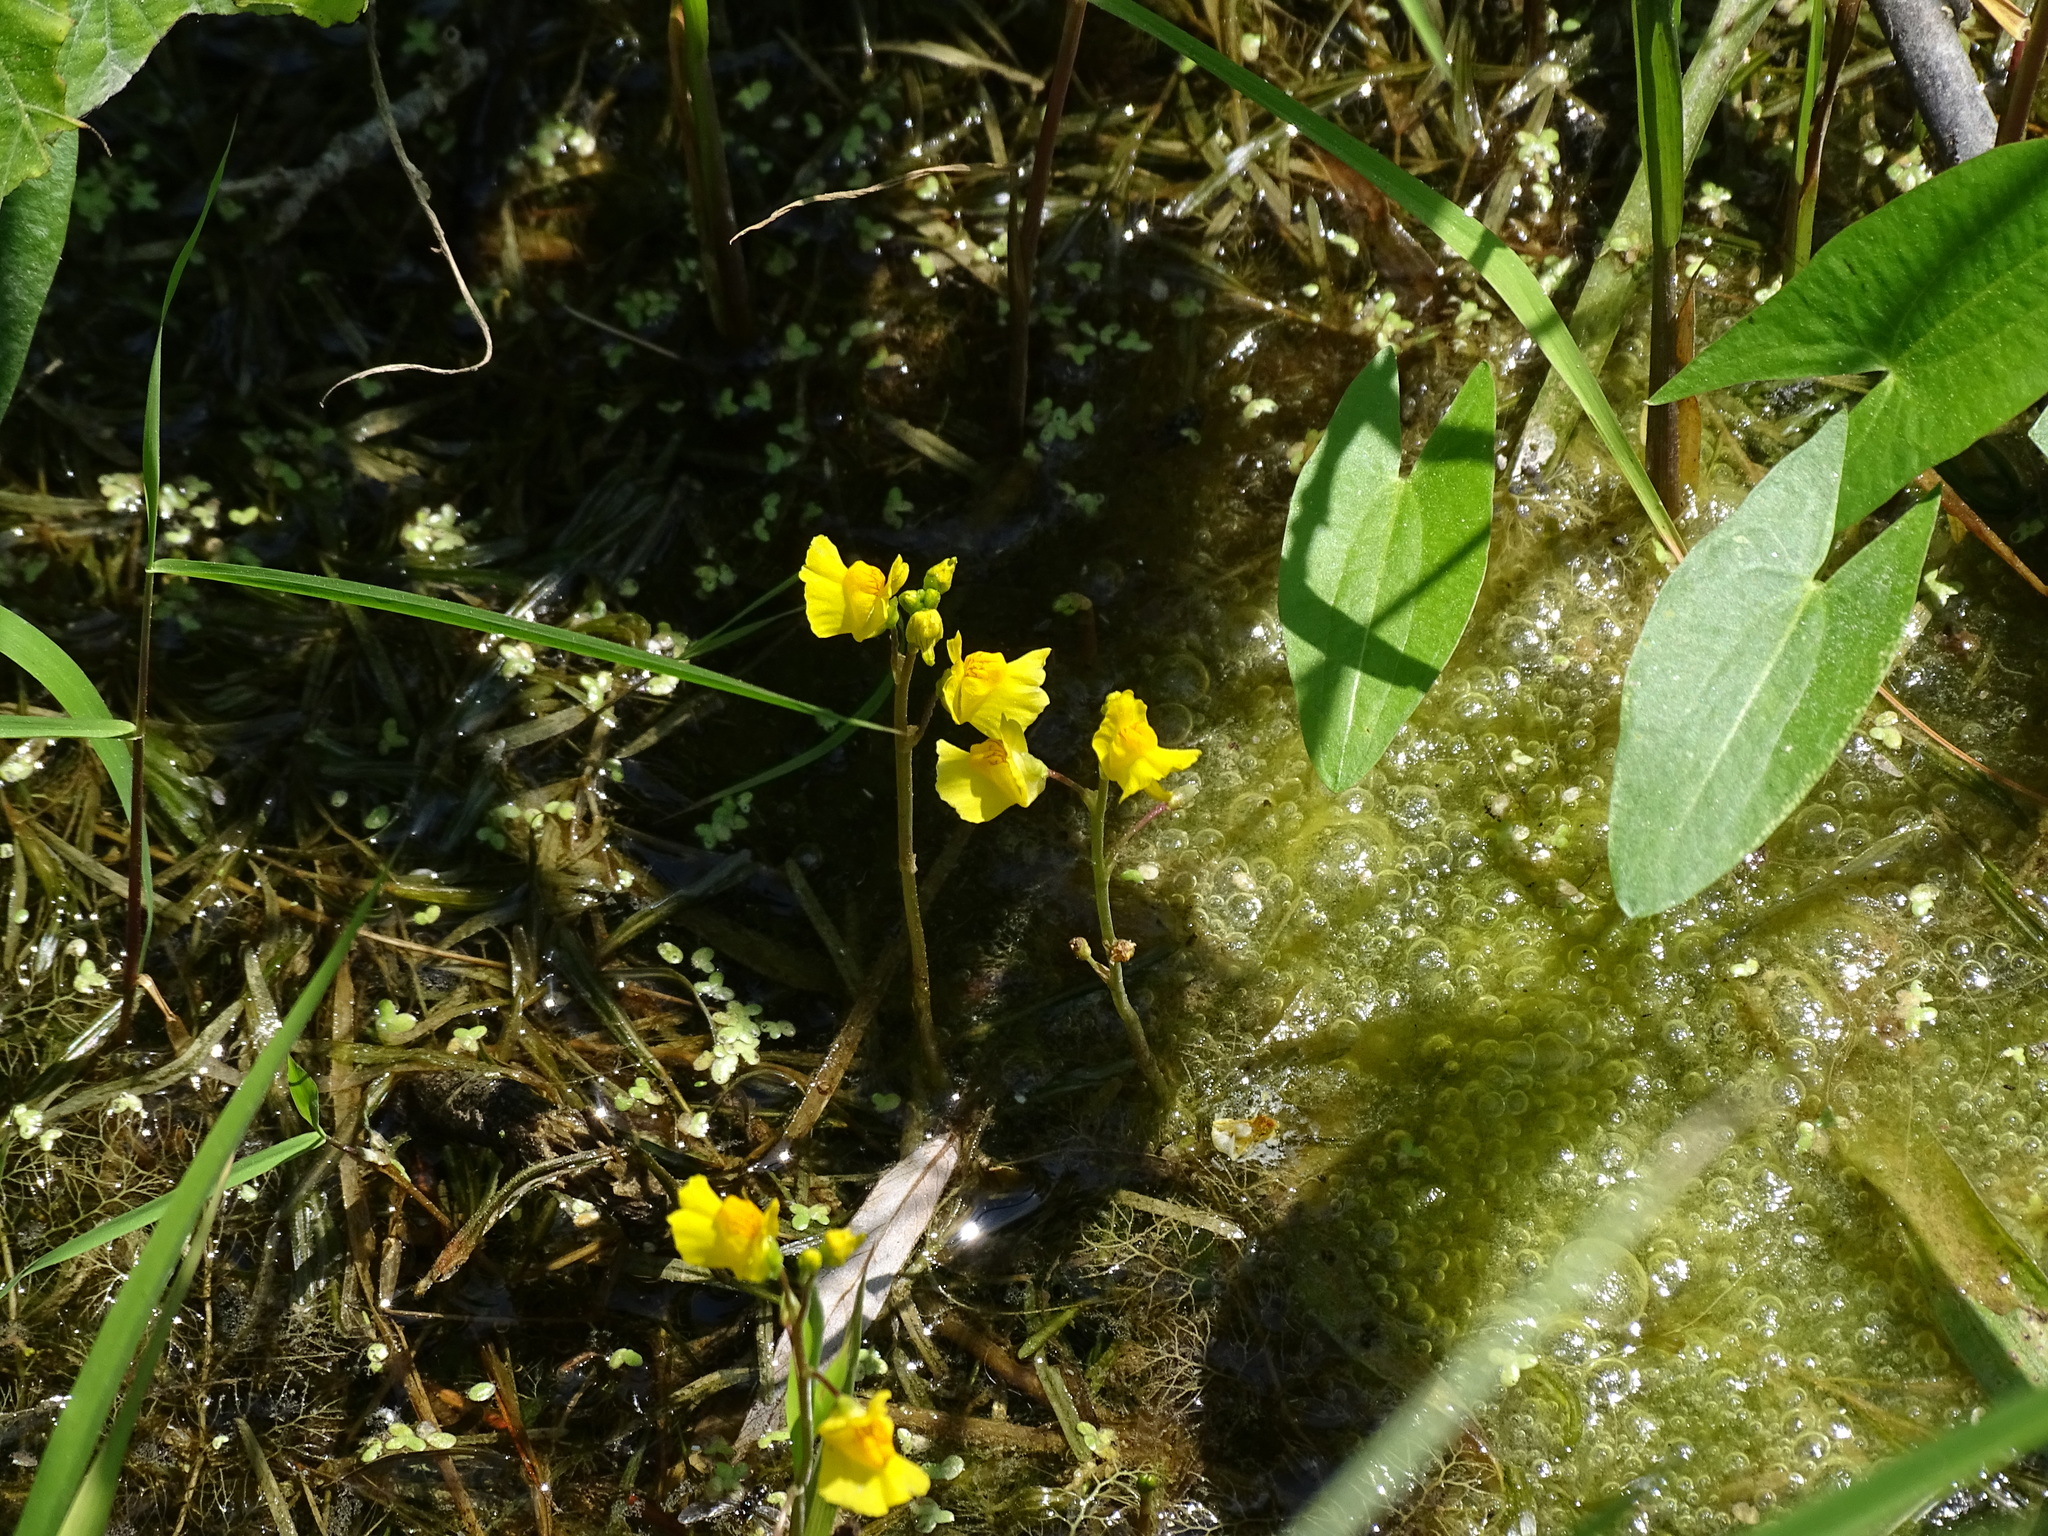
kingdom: Plantae
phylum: Tracheophyta
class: Magnoliopsida
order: Lamiales
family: Lentibulariaceae
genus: Utricularia
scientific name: Utricularia macrorhiza
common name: Common bladderwort
